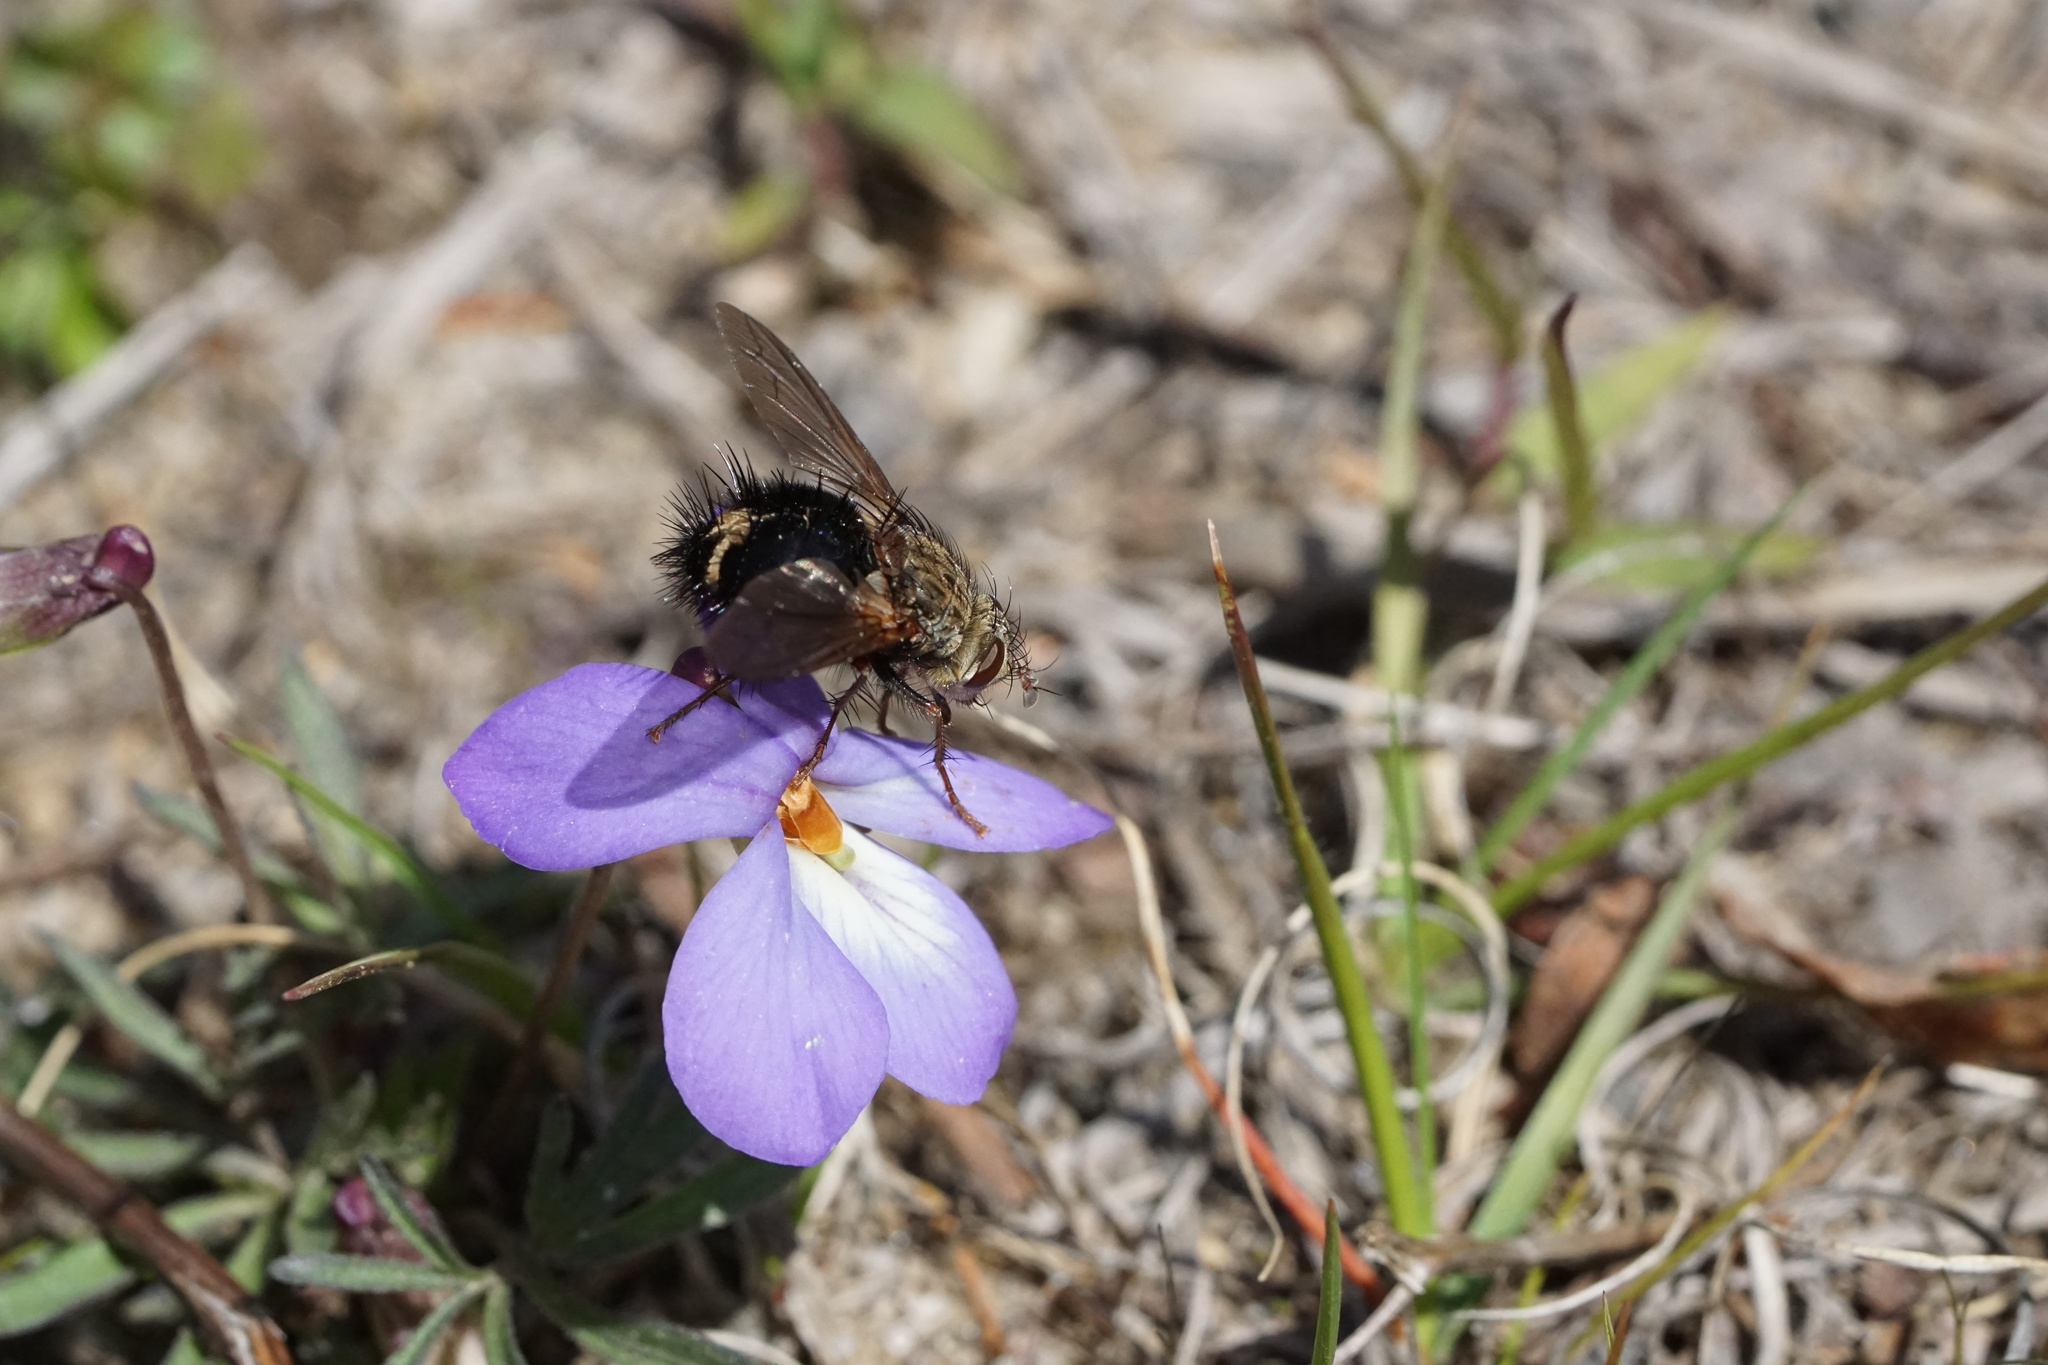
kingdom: Animalia
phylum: Arthropoda
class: Insecta
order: Diptera
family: Tachinidae
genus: Epalpus
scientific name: Epalpus signifer
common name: Early tachinid fly
